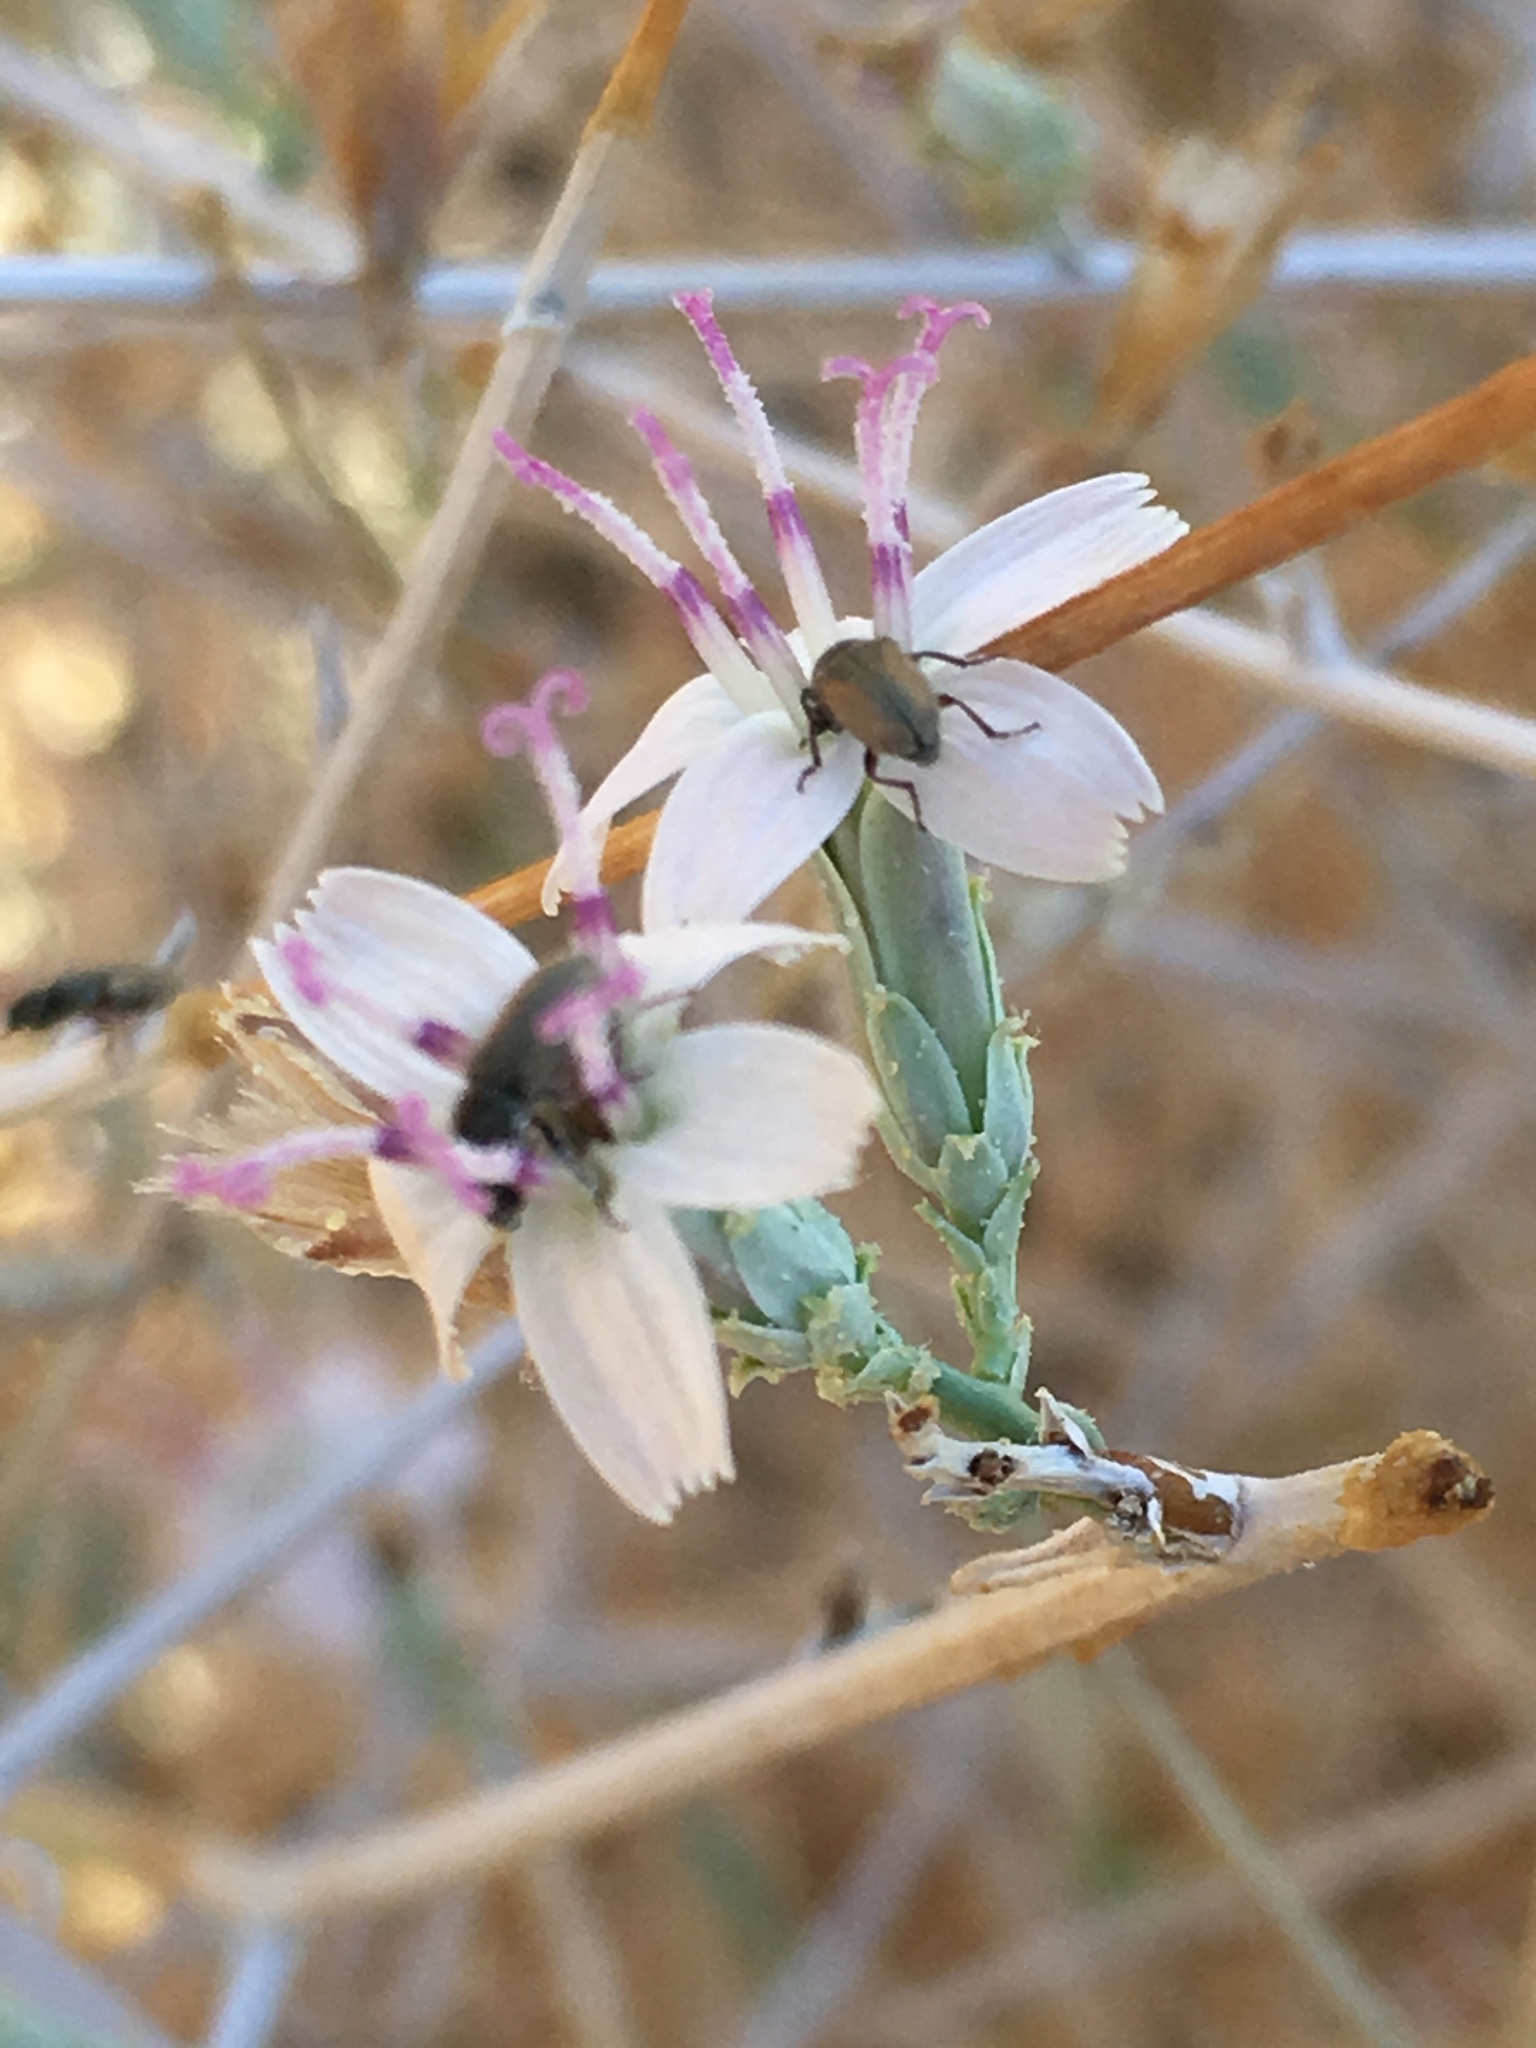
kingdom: Plantae
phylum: Tracheophyta
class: Magnoliopsida
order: Asterales
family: Asteraceae
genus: Stephanomeria
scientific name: Stephanomeria pauciflora
